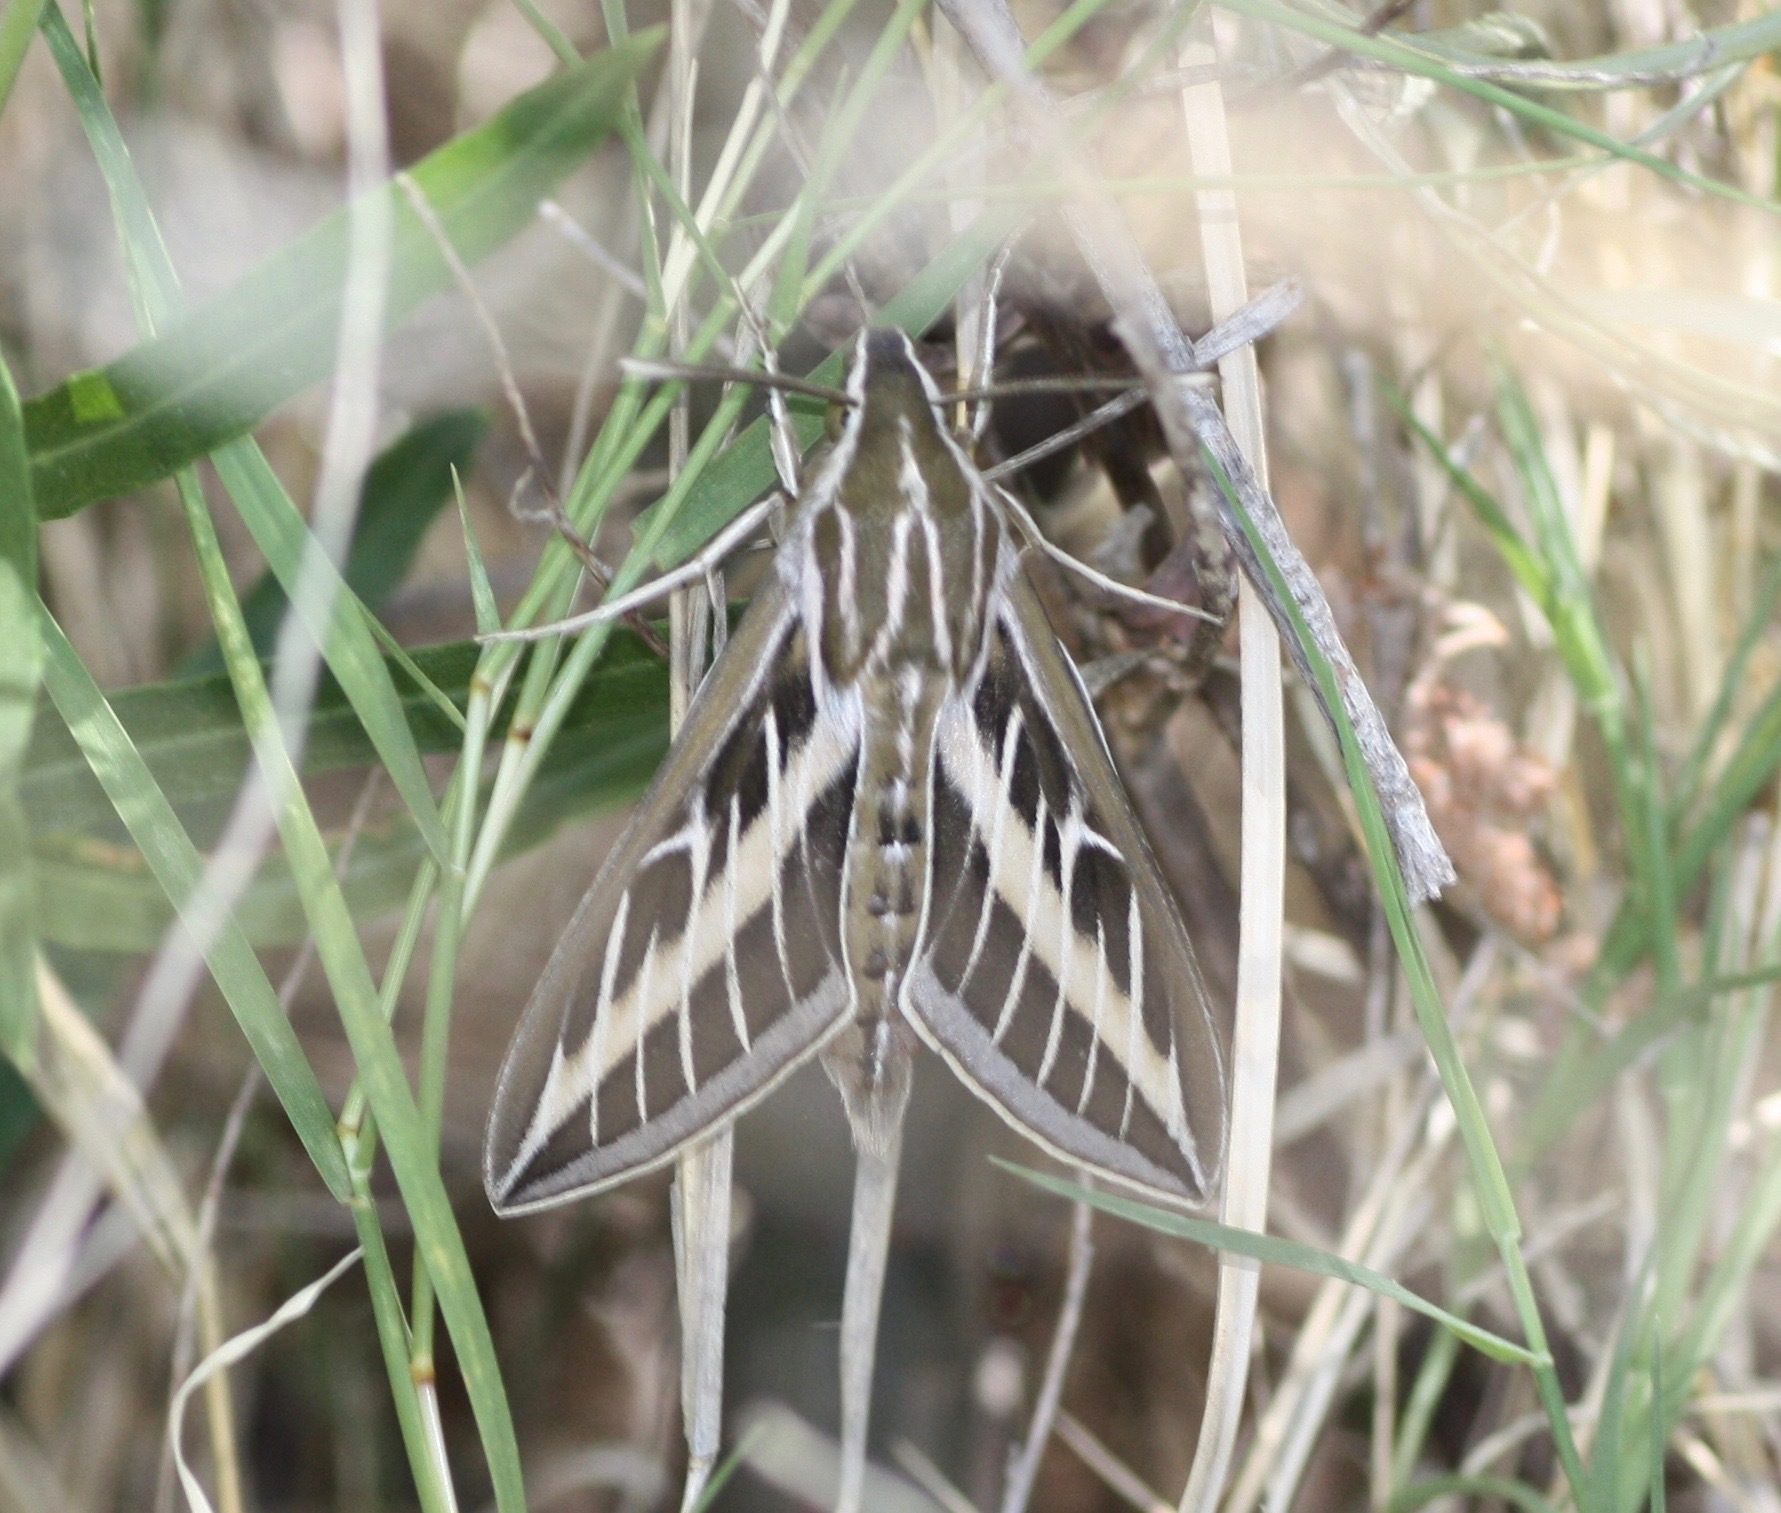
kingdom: Animalia
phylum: Arthropoda
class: Insecta
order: Lepidoptera
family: Sphingidae
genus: Hyles
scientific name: Hyles lineata
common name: White-lined sphinx
